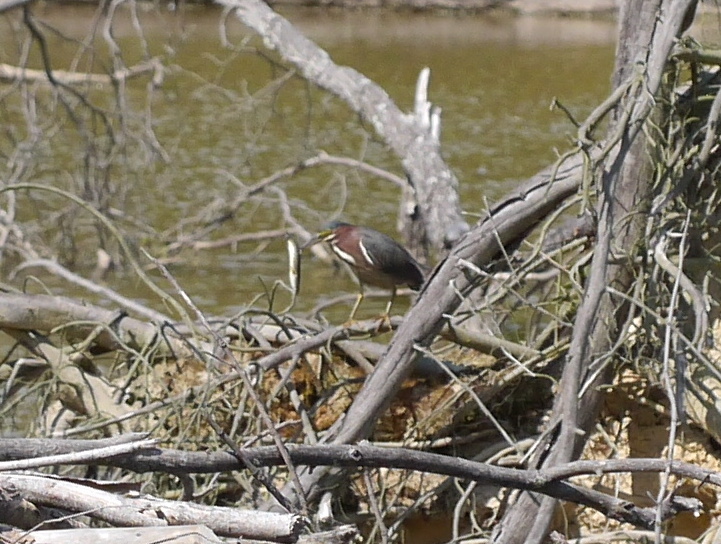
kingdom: Animalia
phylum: Chordata
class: Aves
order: Pelecaniformes
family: Ardeidae
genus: Butorides
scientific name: Butorides virescens
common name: Green heron
